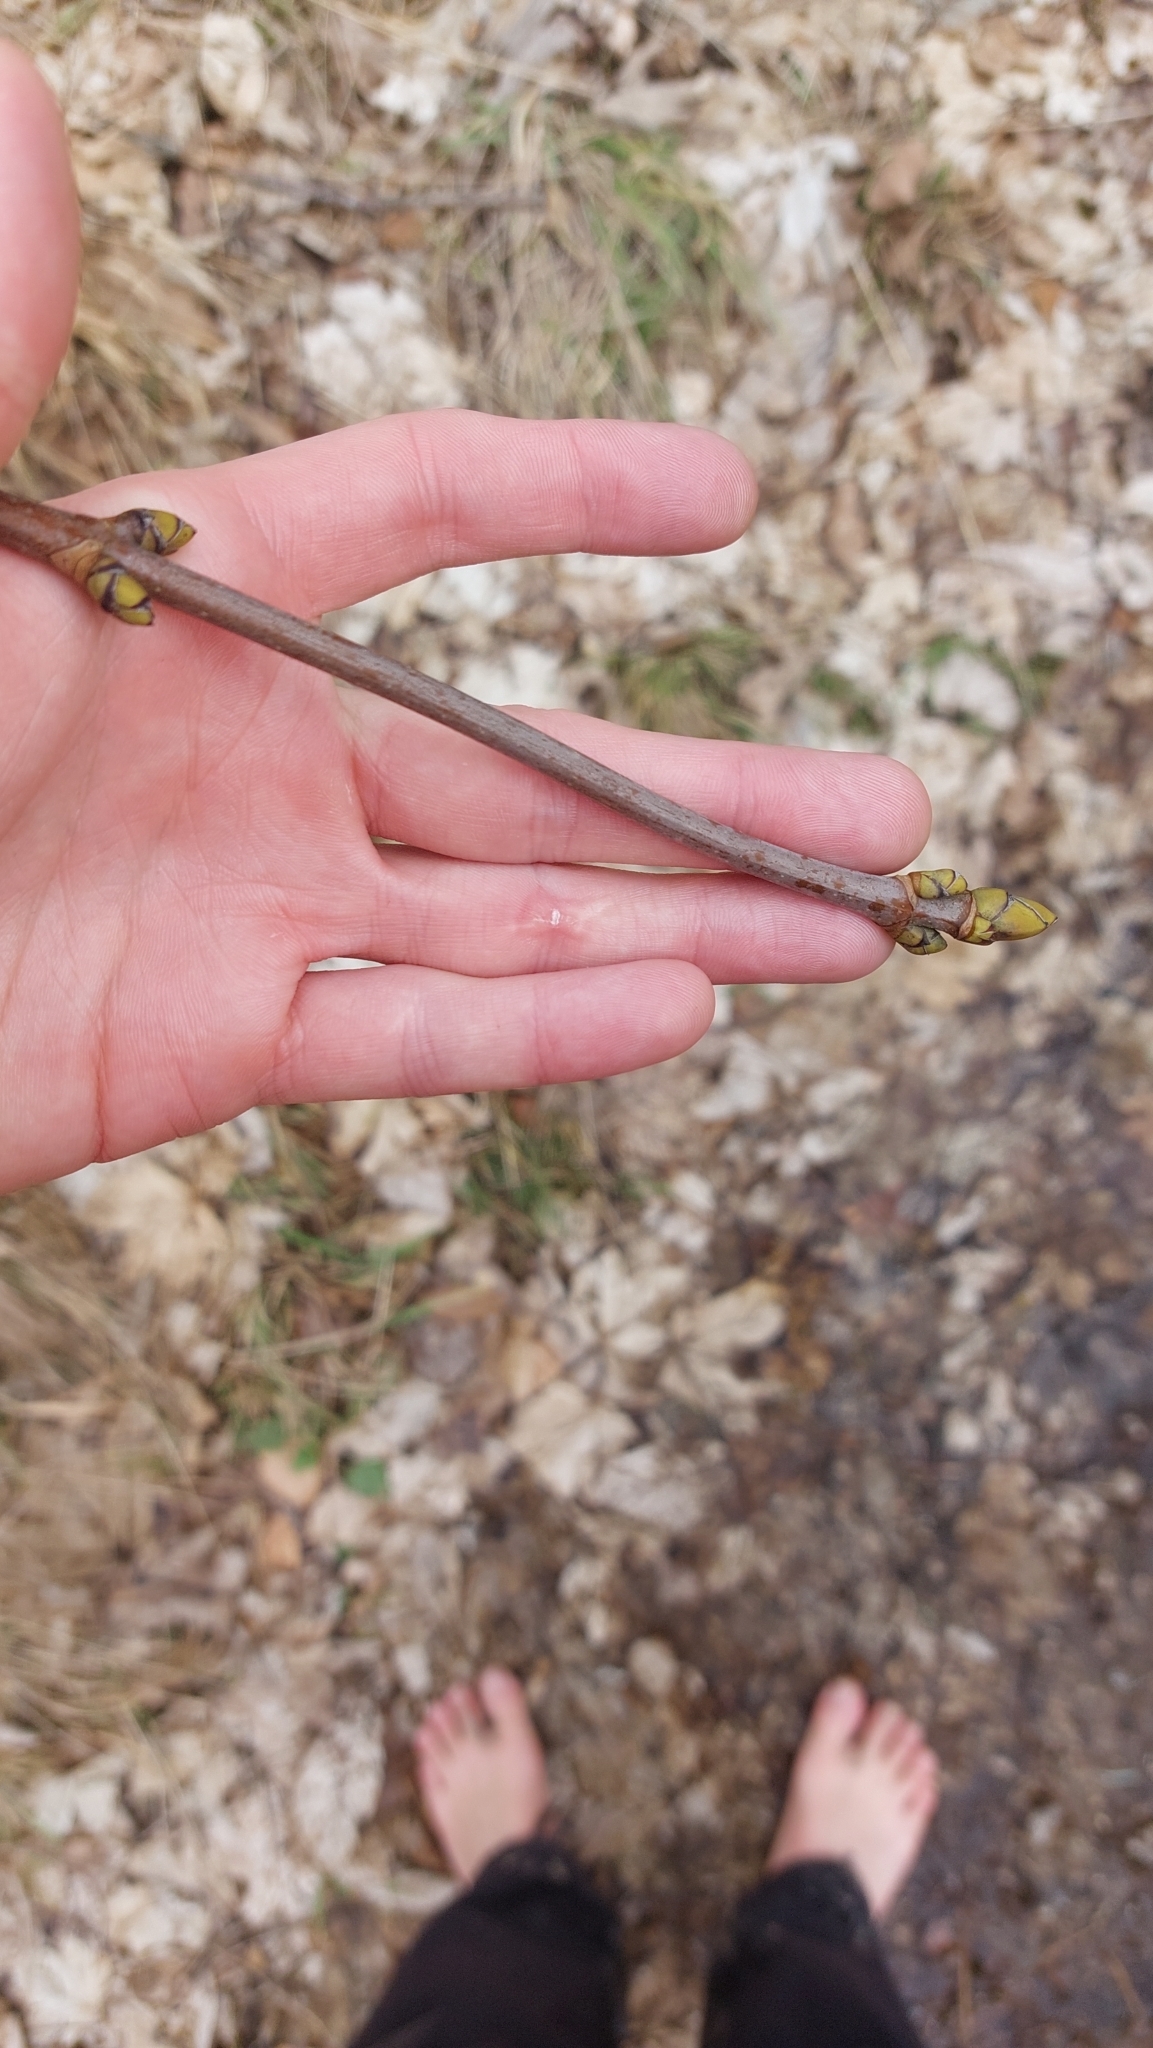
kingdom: Plantae
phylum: Tracheophyta
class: Magnoliopsida
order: Sapindales
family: Sapindaceae
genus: Acer
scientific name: Acer pseudoplatanus
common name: Sycamore
